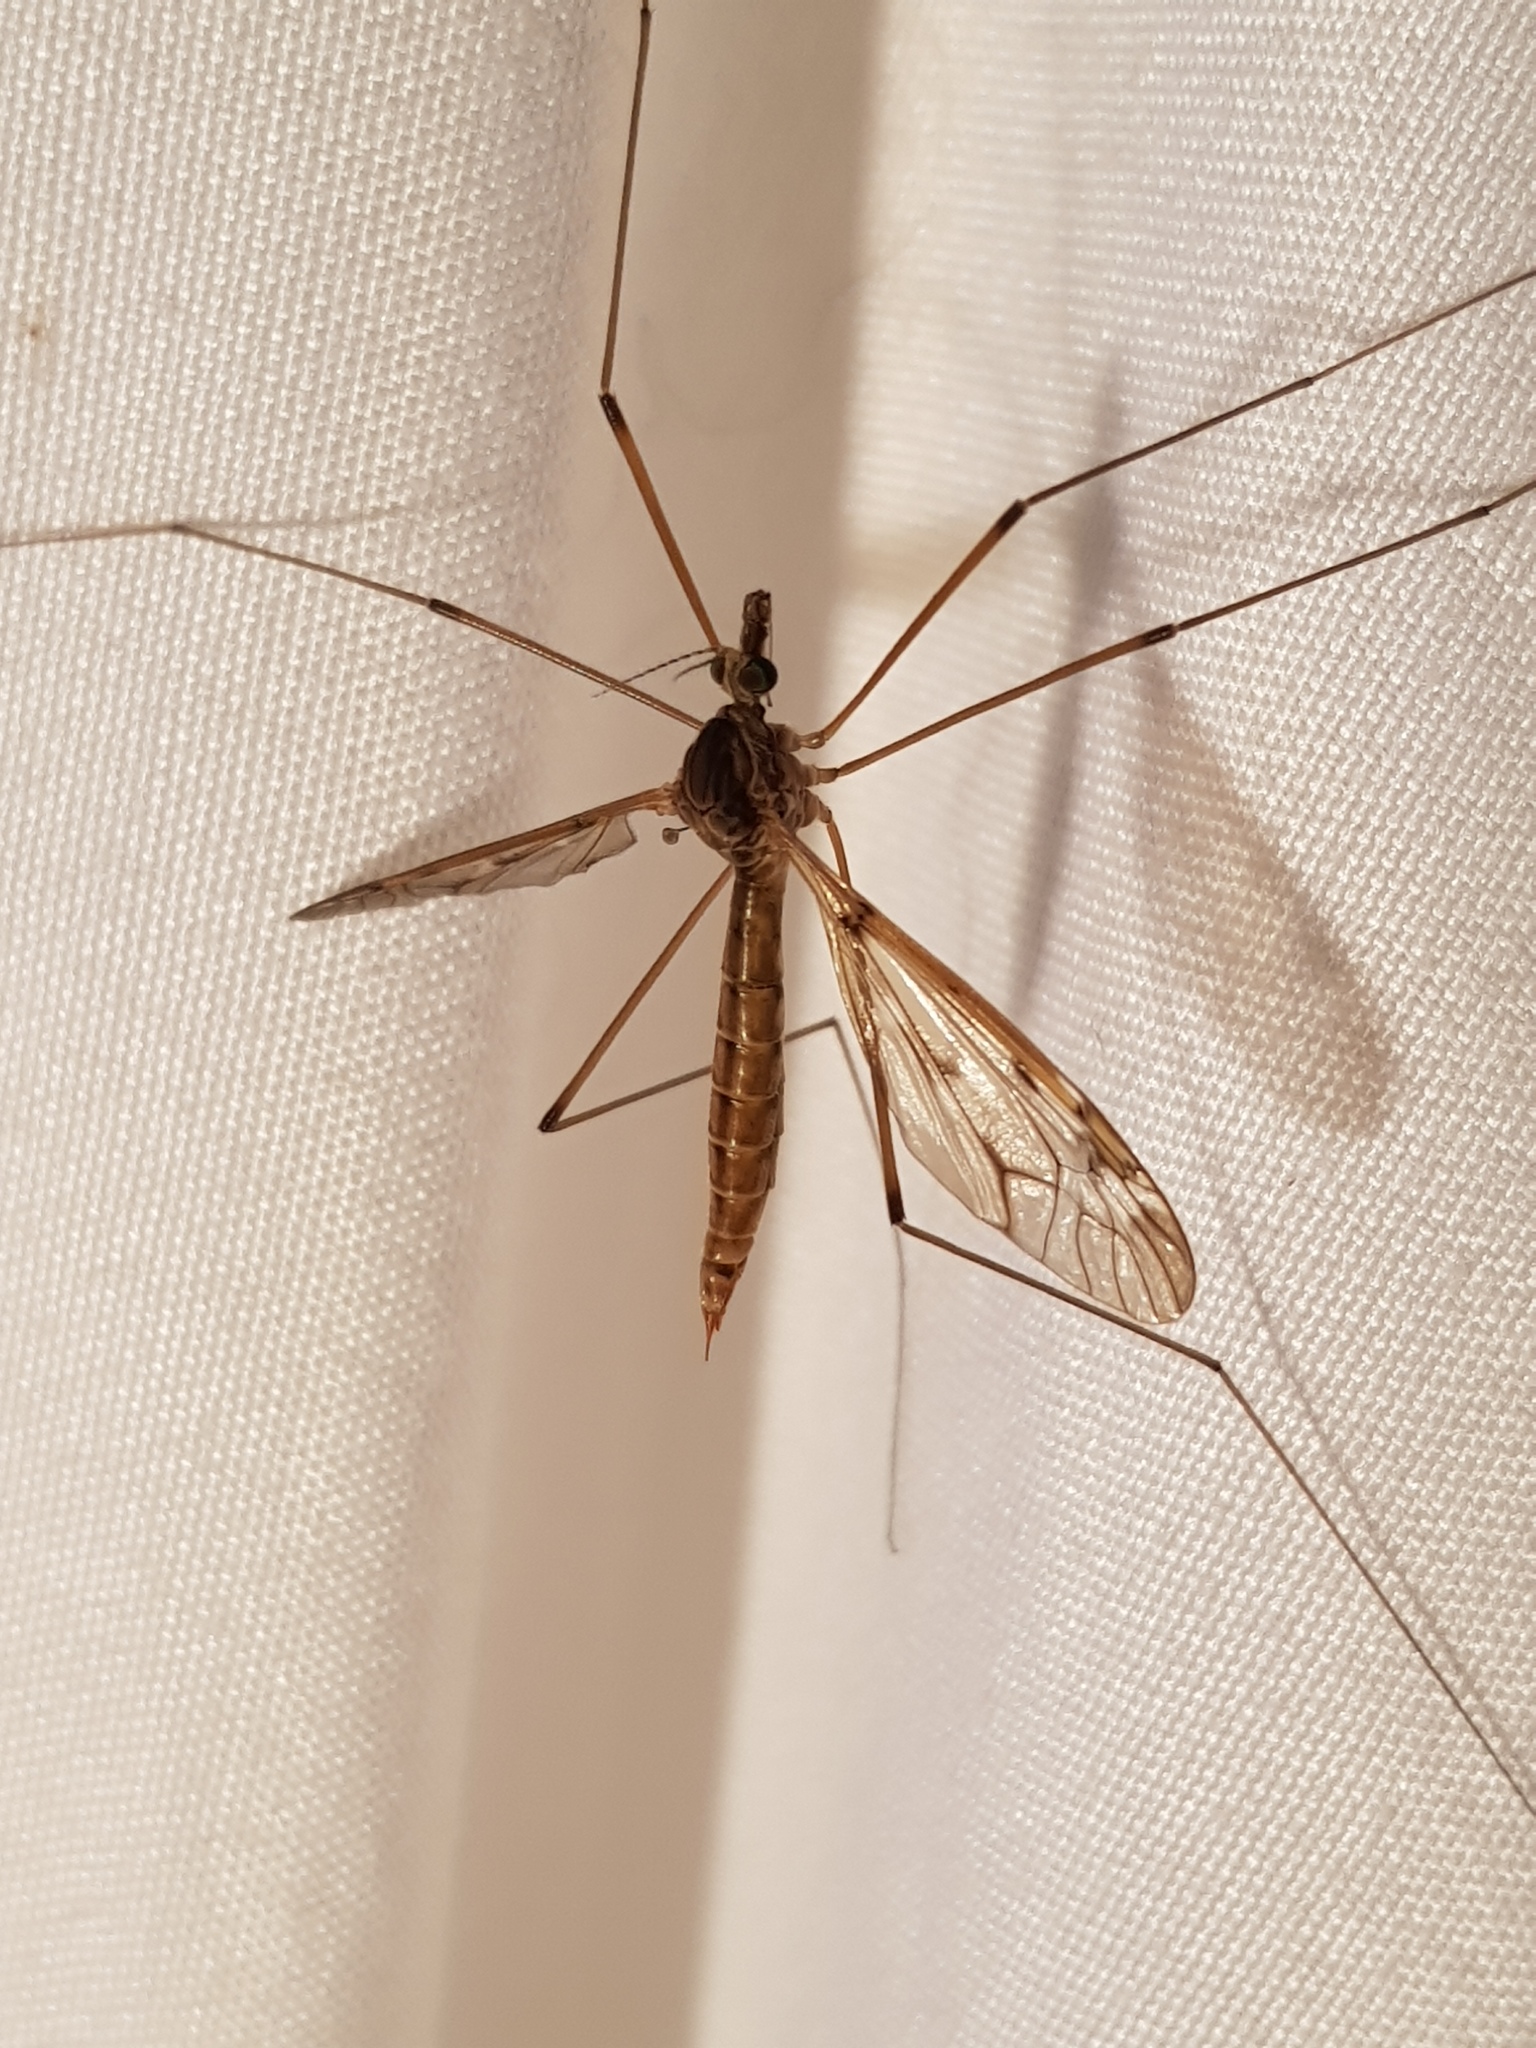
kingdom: Animalia
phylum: Arthropoda
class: Insecta
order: Diptera
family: Tipulidae
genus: Tipula
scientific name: Tipula borealis
